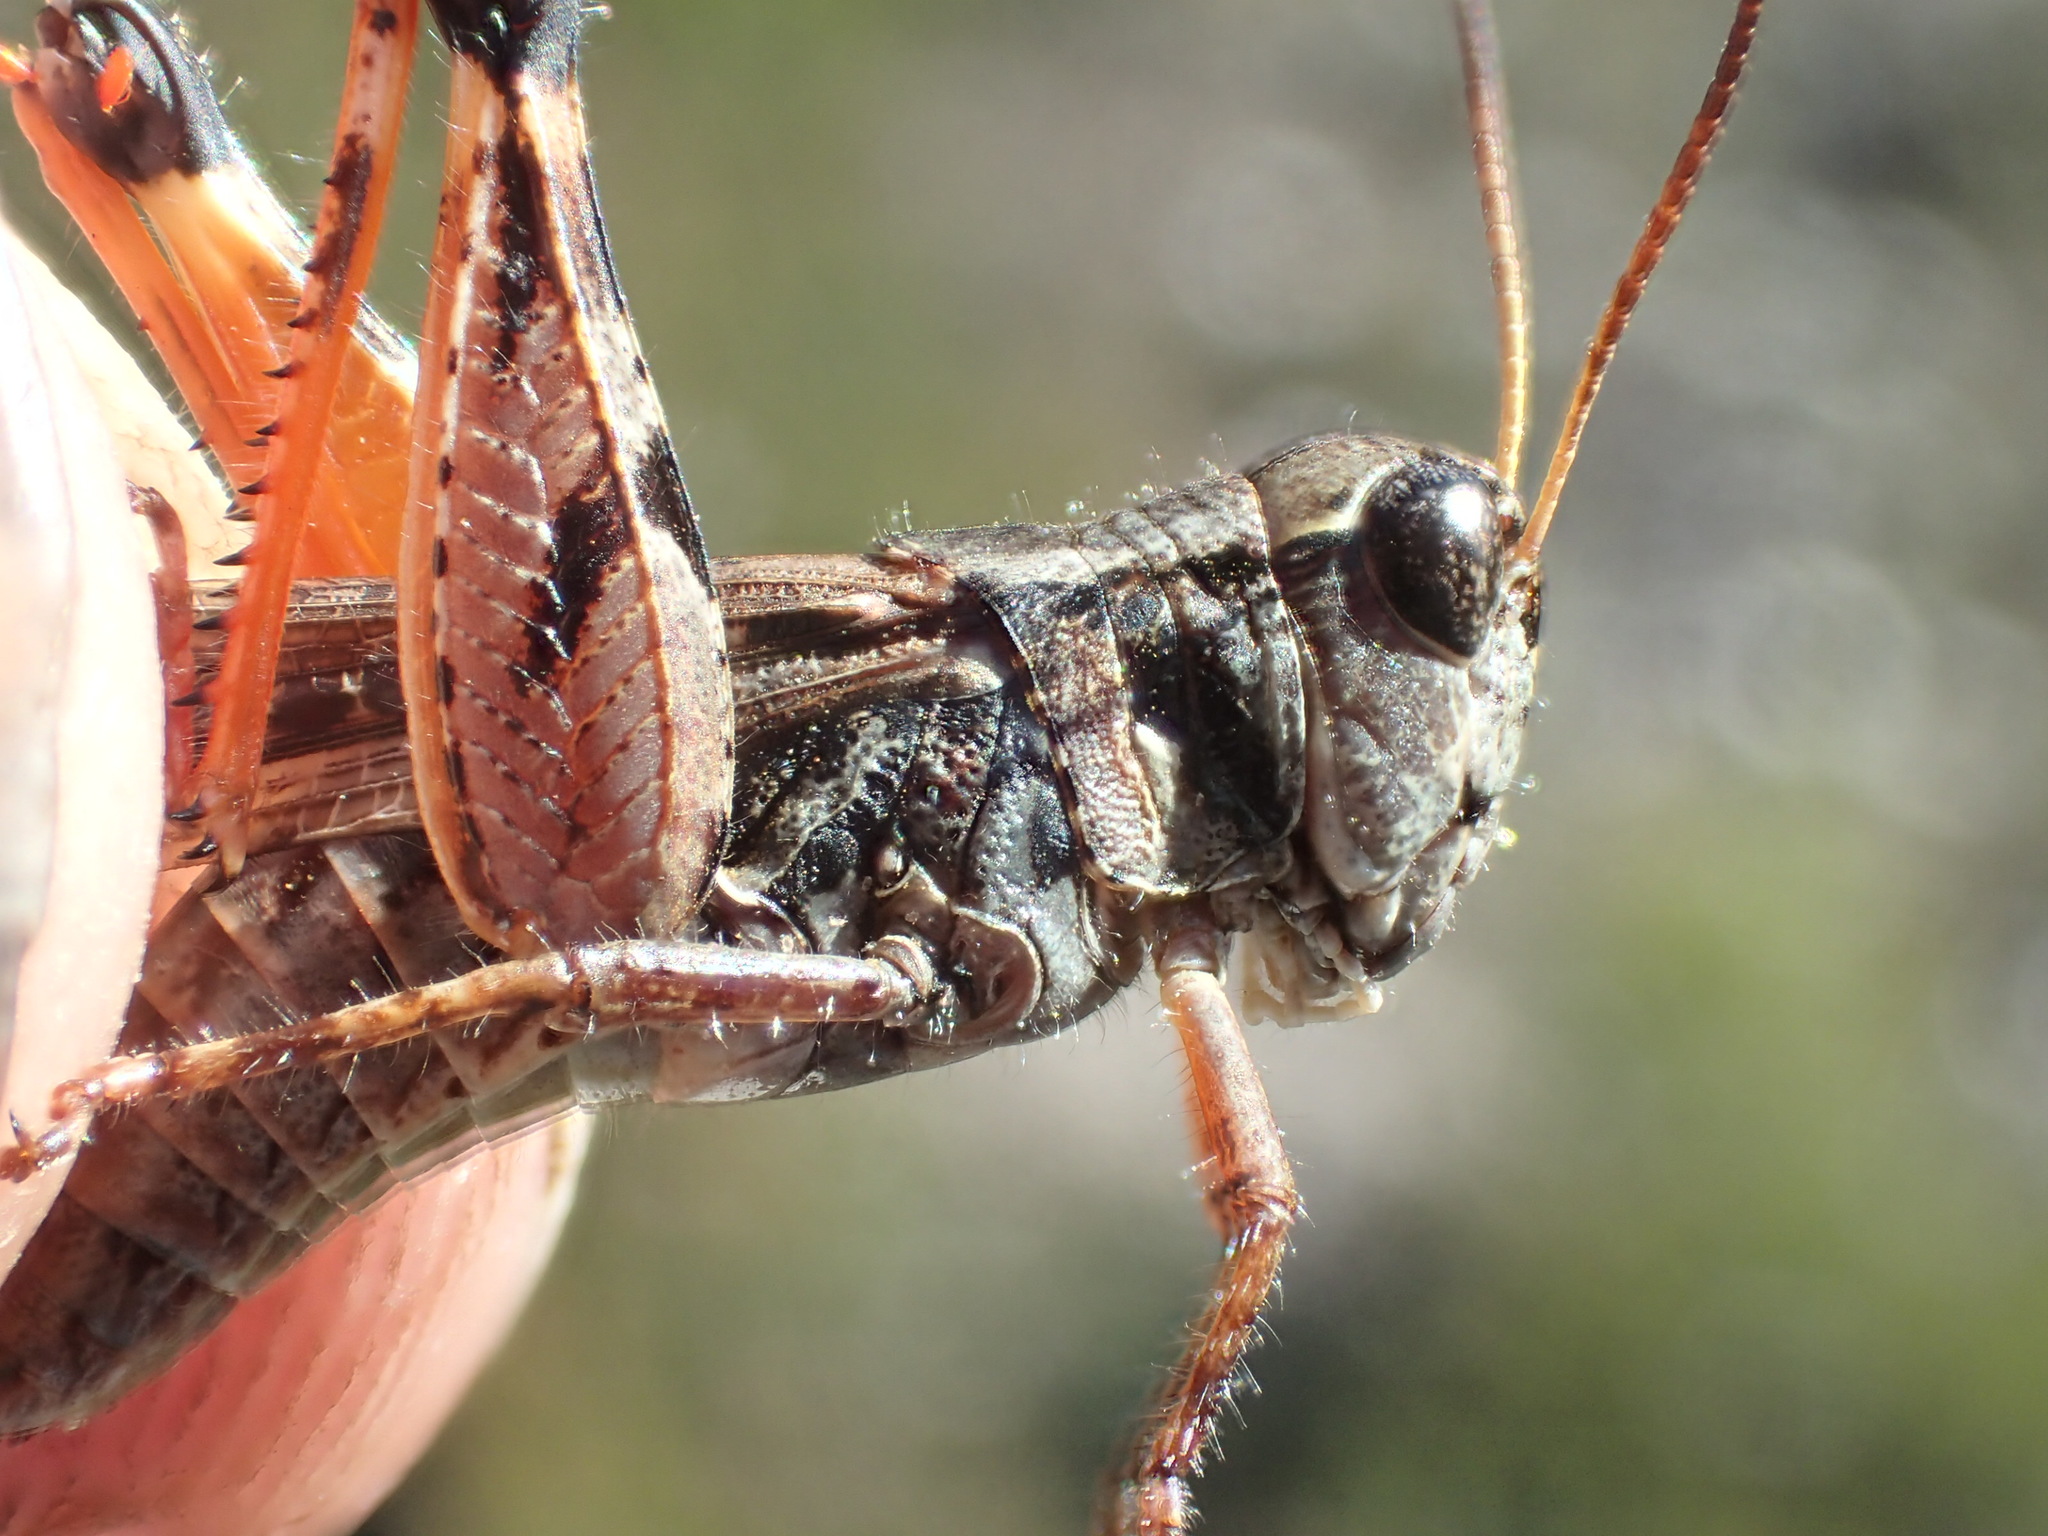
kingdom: Animalia
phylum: Arthropoda
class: Insecta
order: Orthoptera
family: Acrididae
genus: Exarna
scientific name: Exarna includens
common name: Red-legged exarna
